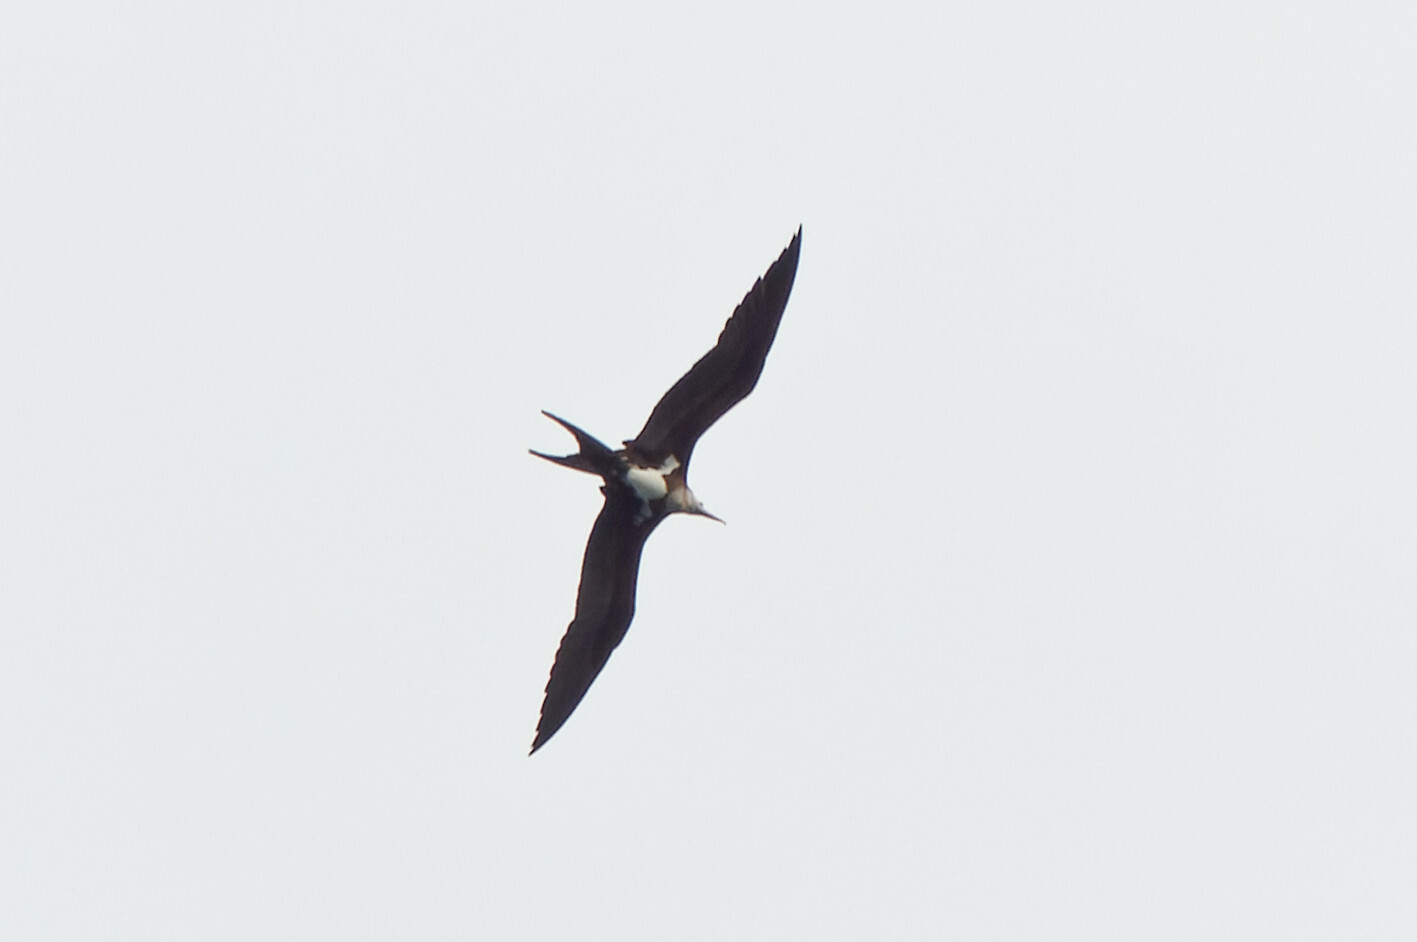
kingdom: Animalia
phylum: Chordata
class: Aves
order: Suliformes
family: Fregatidae
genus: Fregata
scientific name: Fregata andrewsi
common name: Christmas frigatebird
